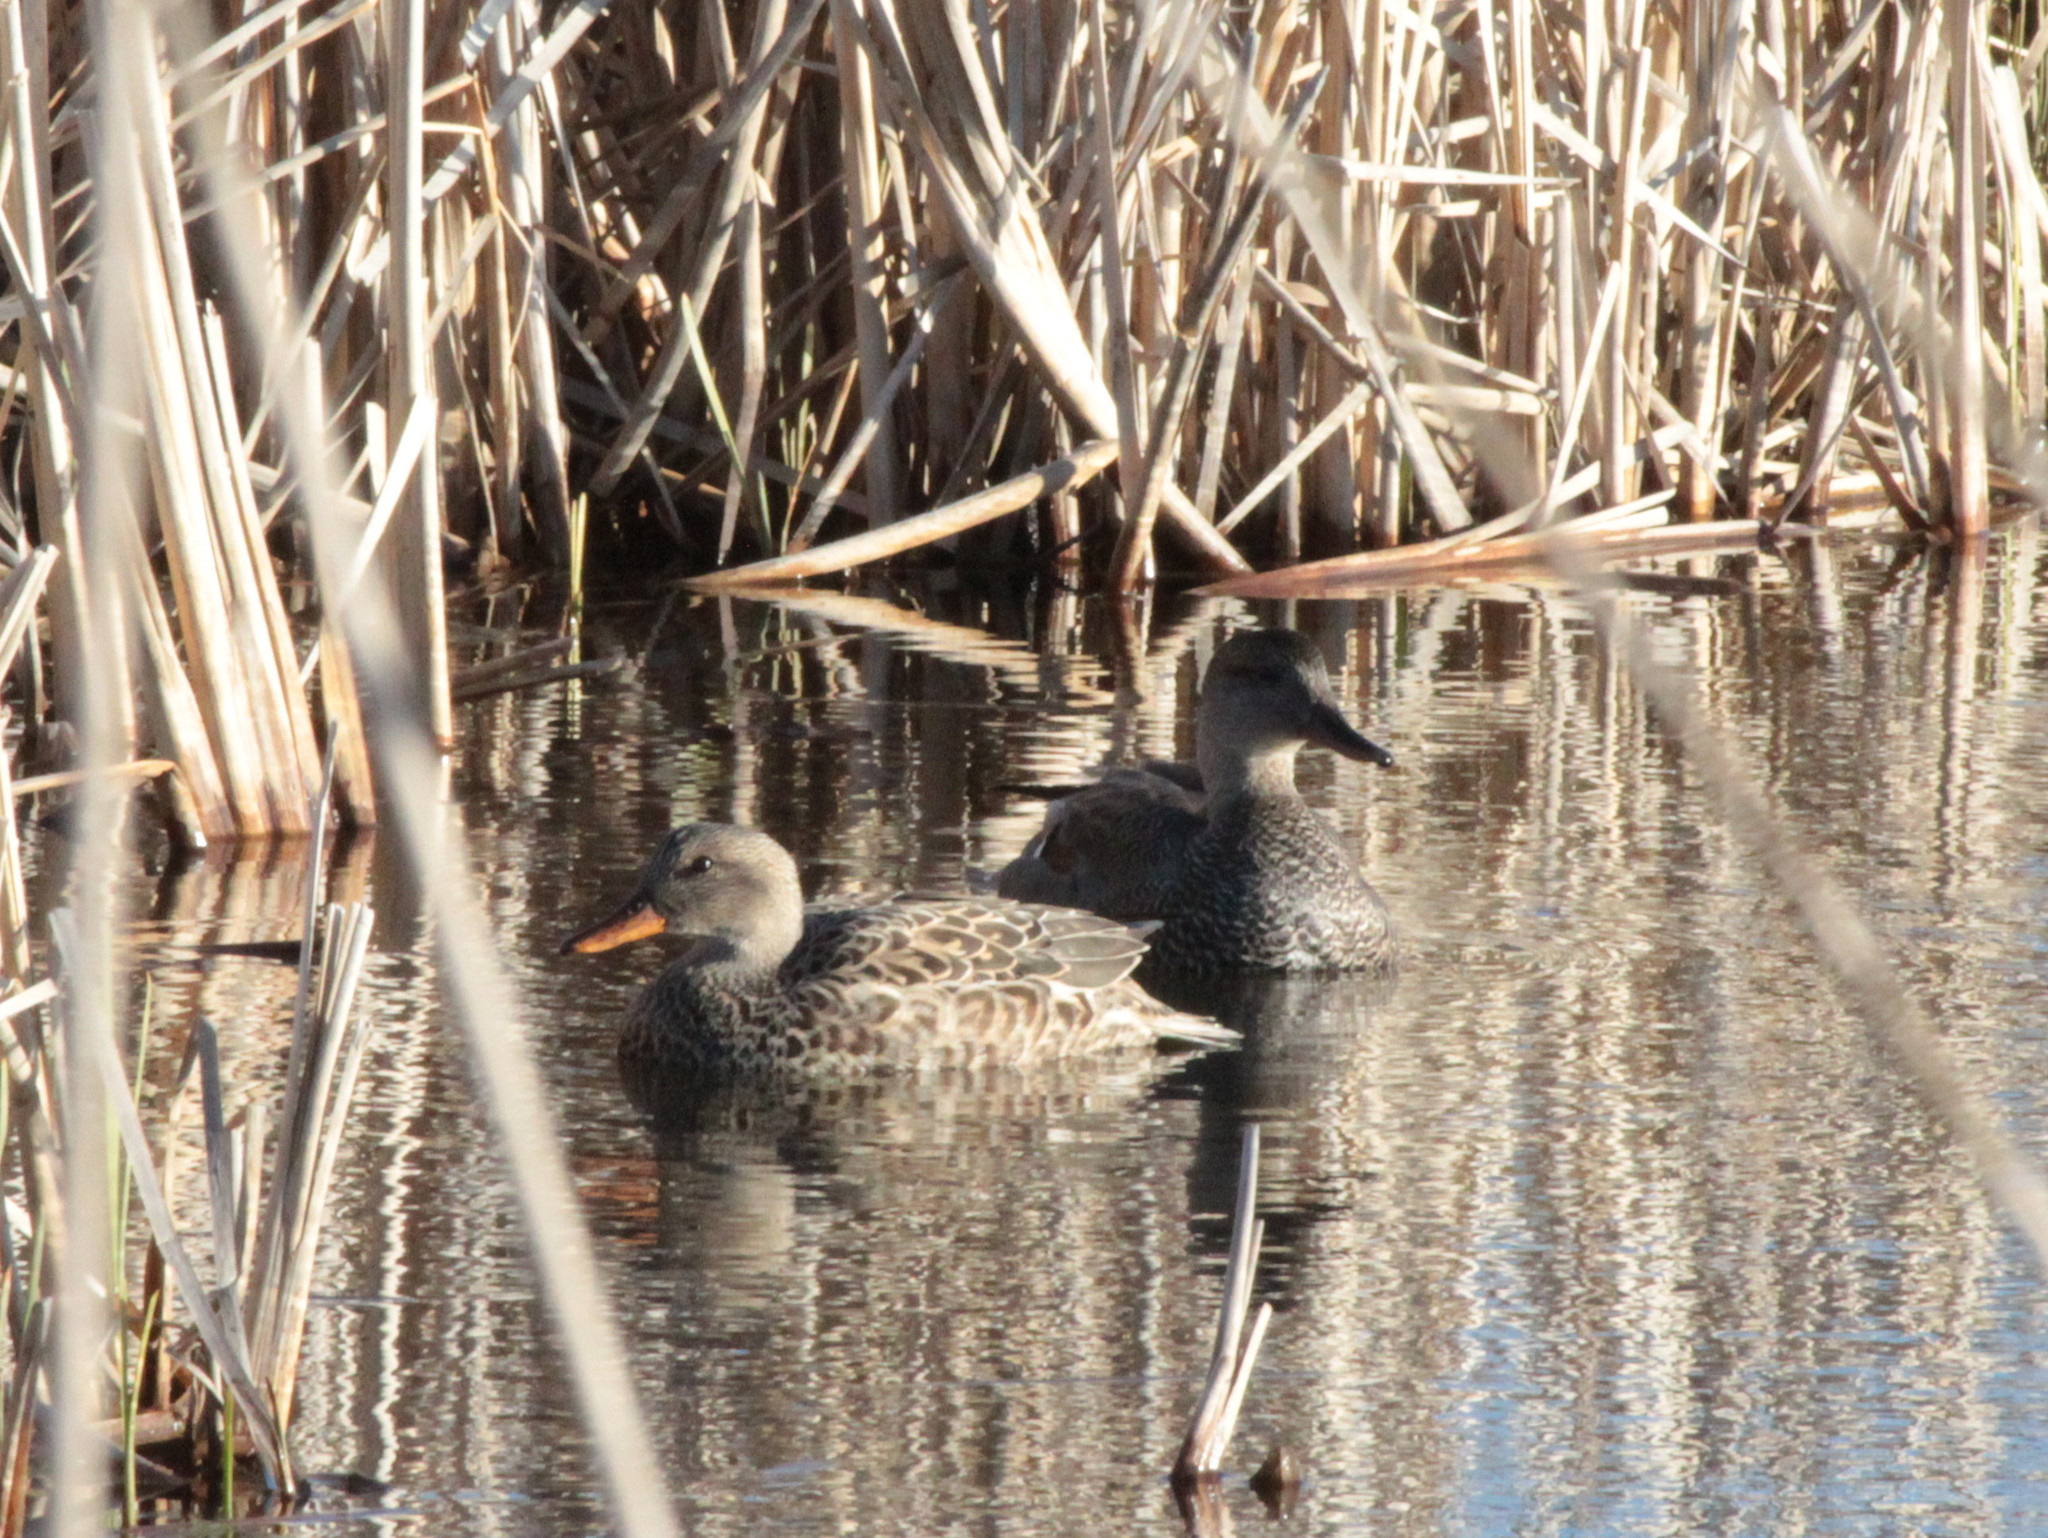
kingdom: Animalia
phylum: Chordata
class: Aves
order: Anseriformes
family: Anatidae
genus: Mareca
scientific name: Mareca strepera
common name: Gadwall
